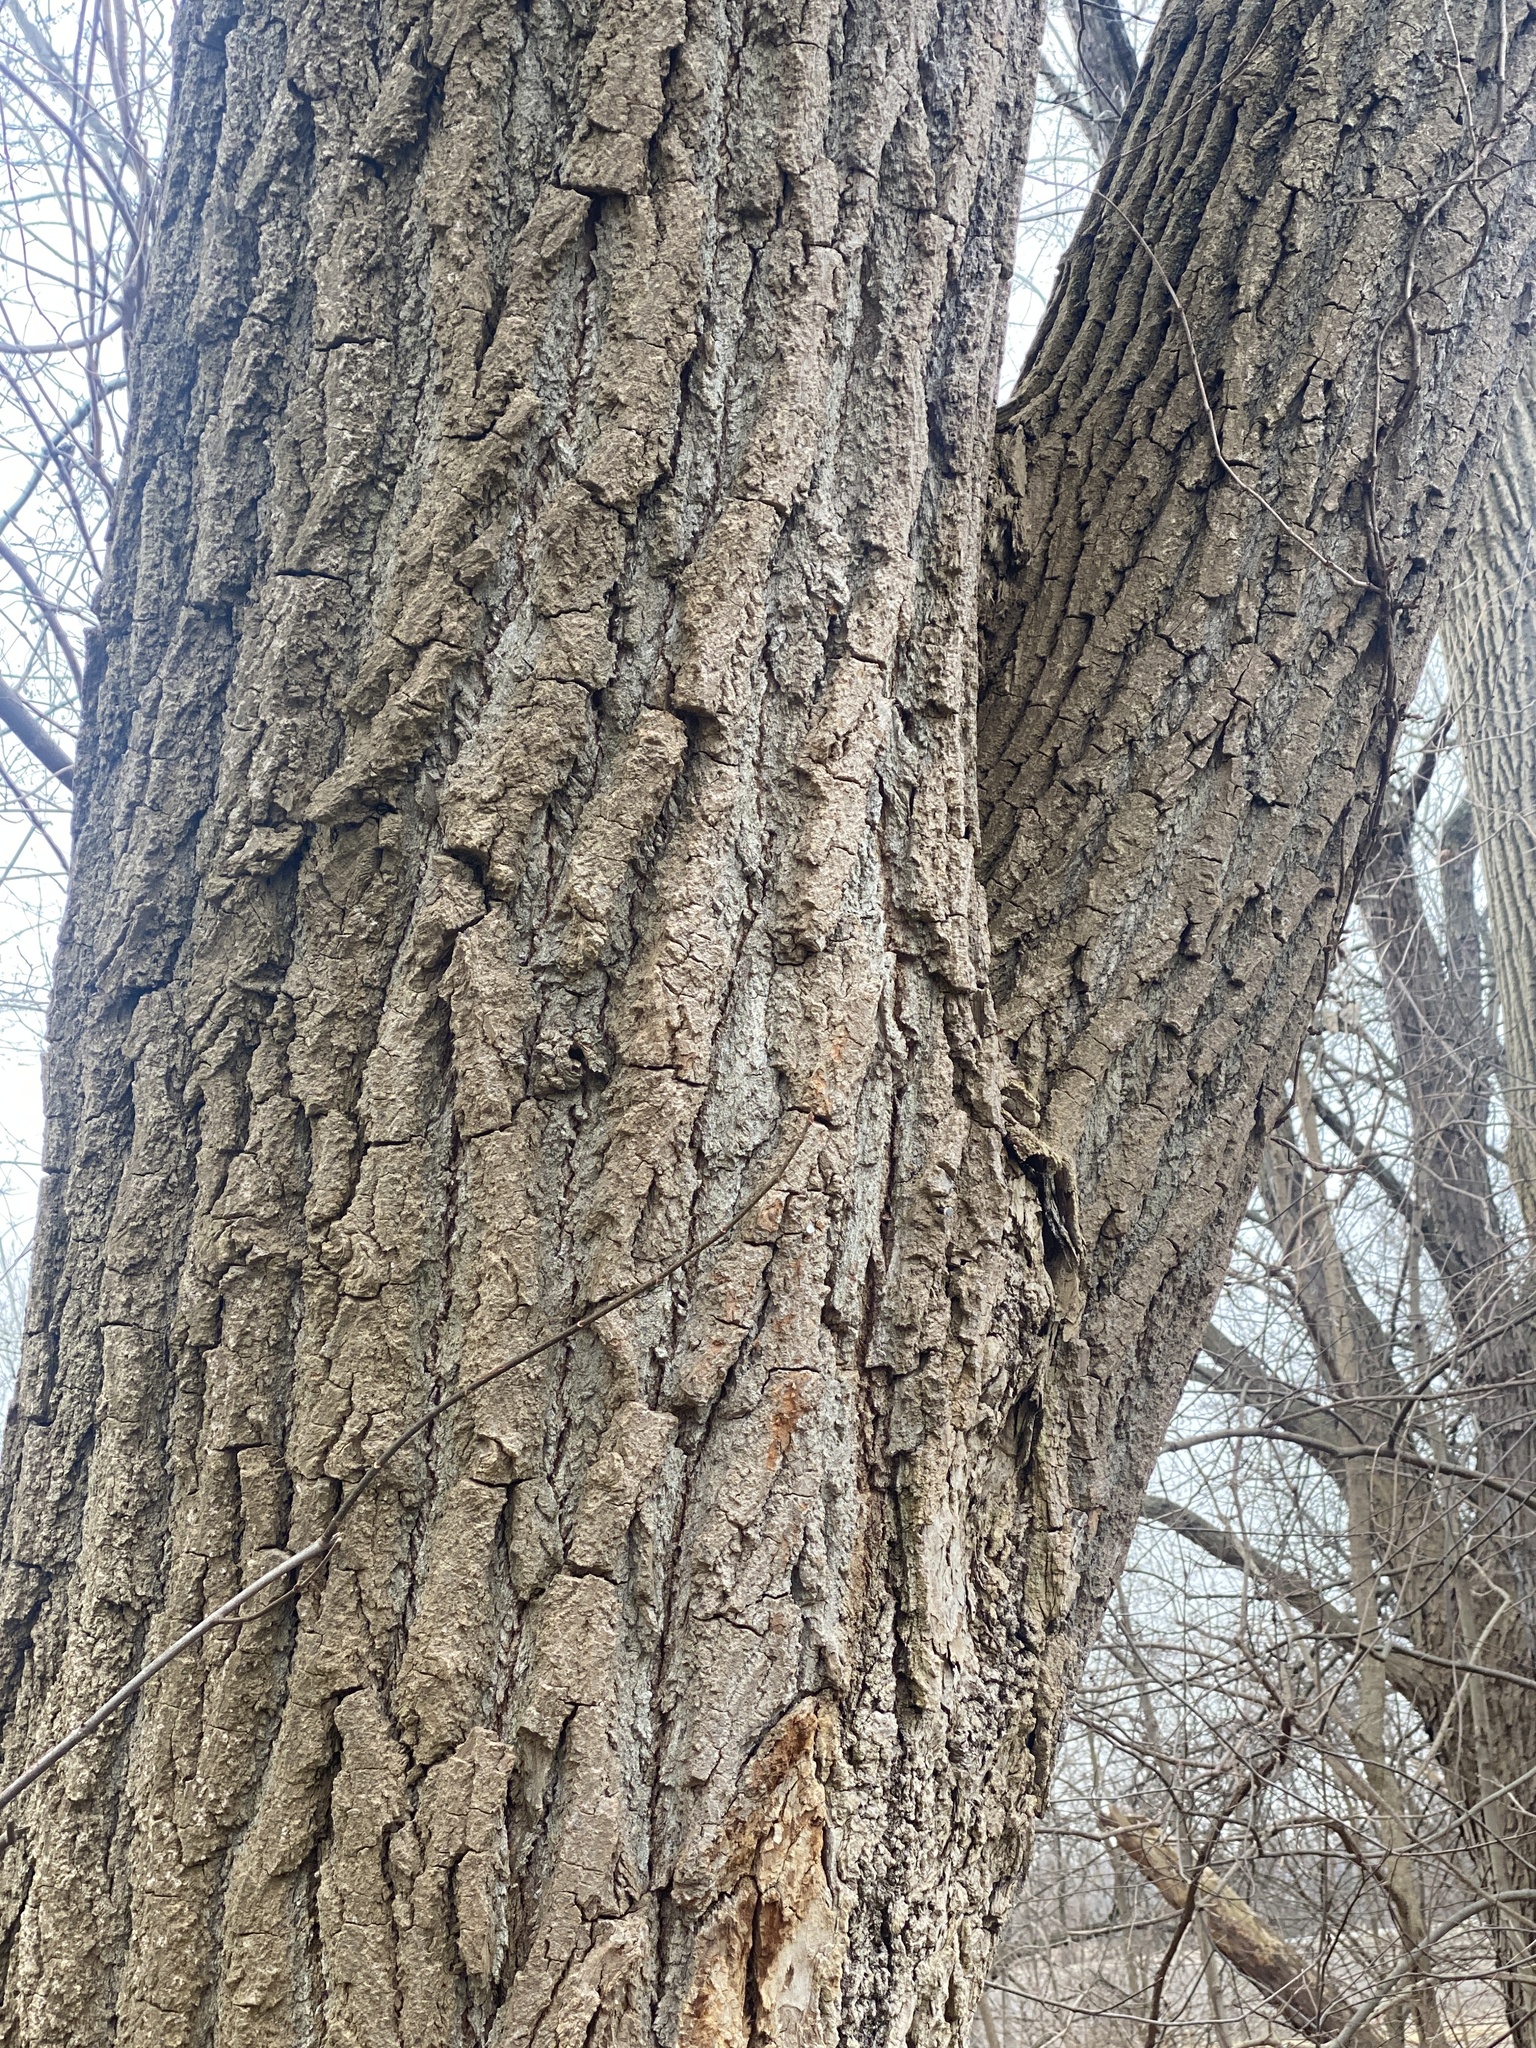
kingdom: Plantae
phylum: Tracheophyta
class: Magnoliopsida
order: Malpighiales
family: Salicaceae
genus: Populus
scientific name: Populus deltoides
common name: Eastern cottonwood
